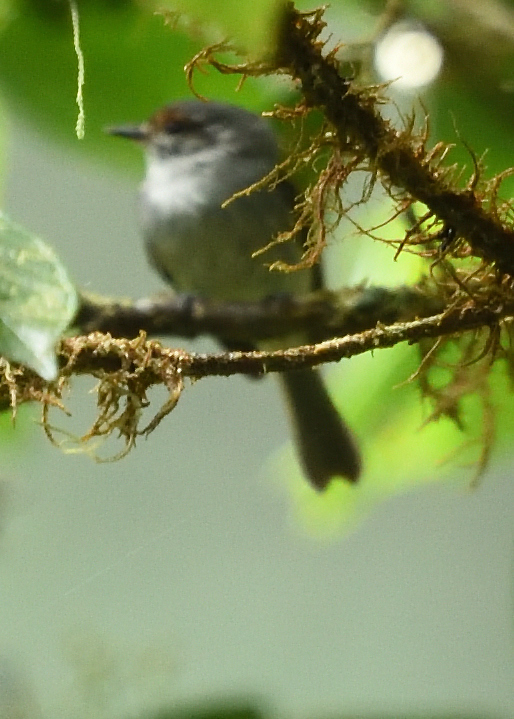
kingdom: Animalia
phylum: Chordata
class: Aves
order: Passeriformes
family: Tyrannidae
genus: Phylloscartes
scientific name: Phylloscartes superciliaris
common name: Rufous-browed tyrannulet
